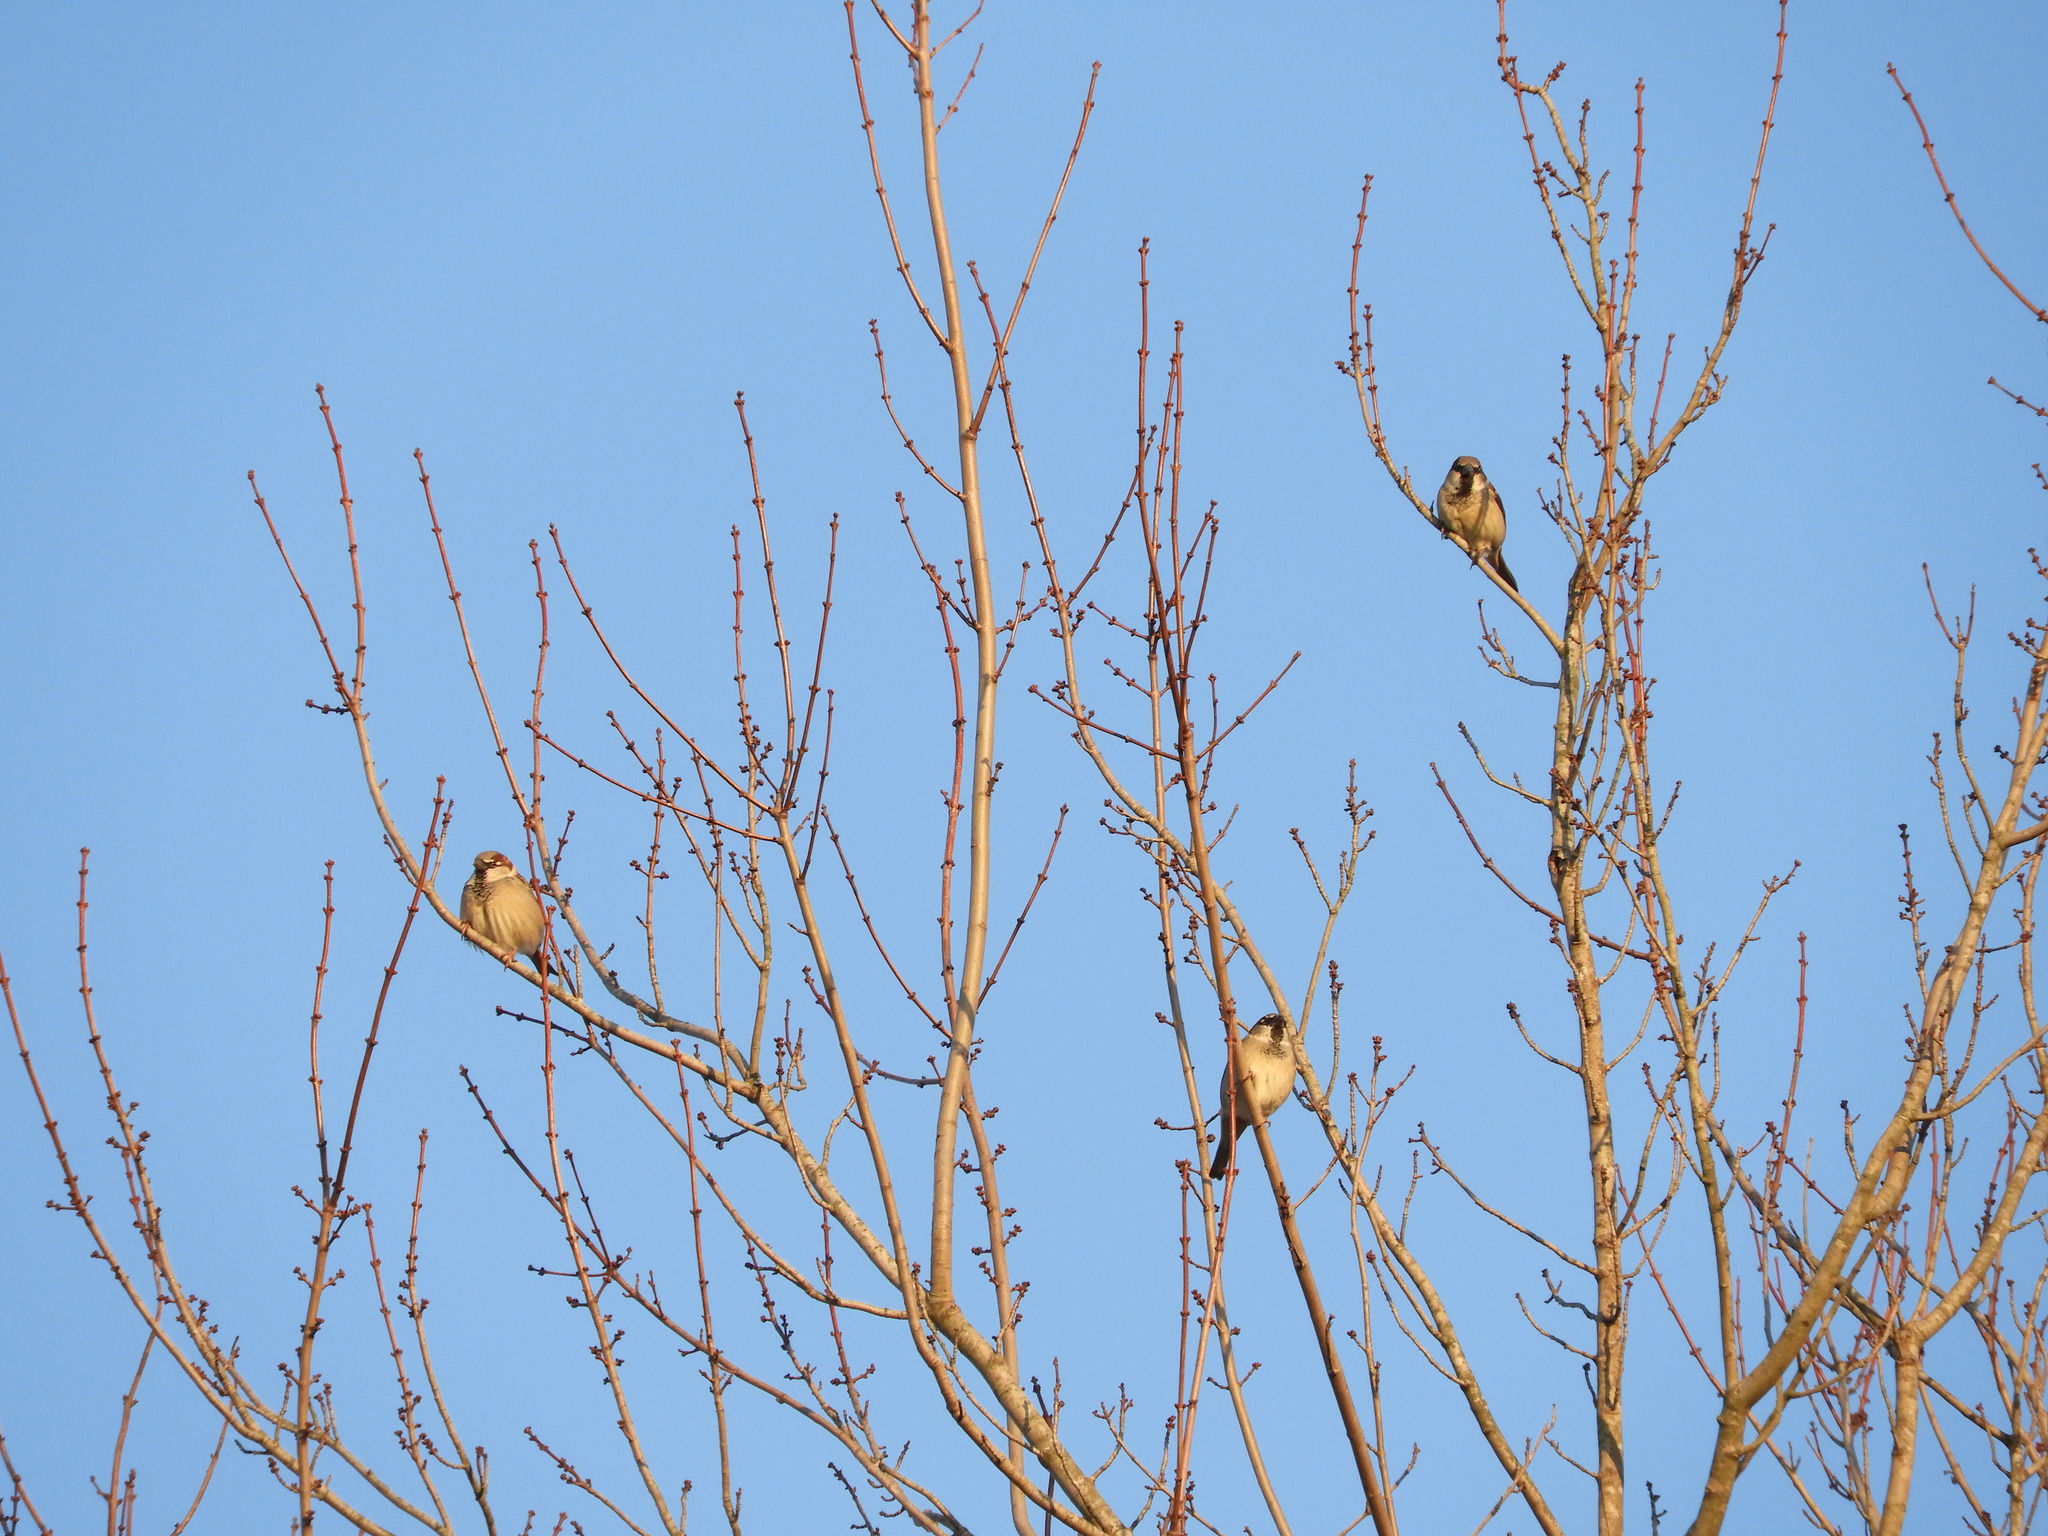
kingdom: Animalia
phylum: Chordata
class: Aves
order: Passeriformes
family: Passeridae
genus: Passer
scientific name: Passer domesticus
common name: House sparrow
